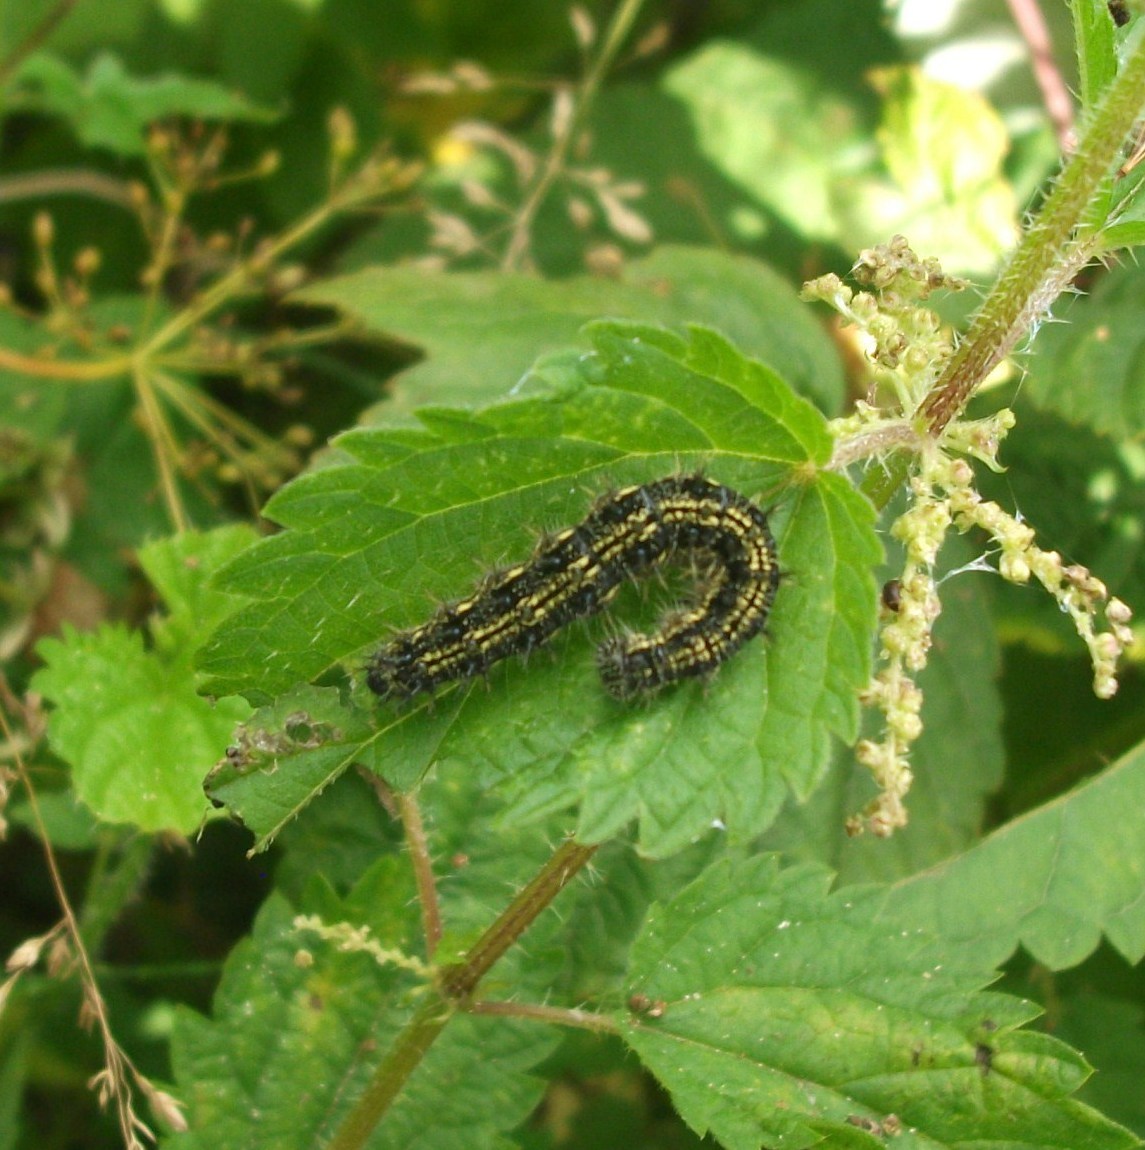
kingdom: Animalia
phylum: Arthropoda
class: Insecta
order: Lepidoptera
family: Nymphalidae
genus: Aglais
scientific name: Aglais urticae
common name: Small tortoiseshell
